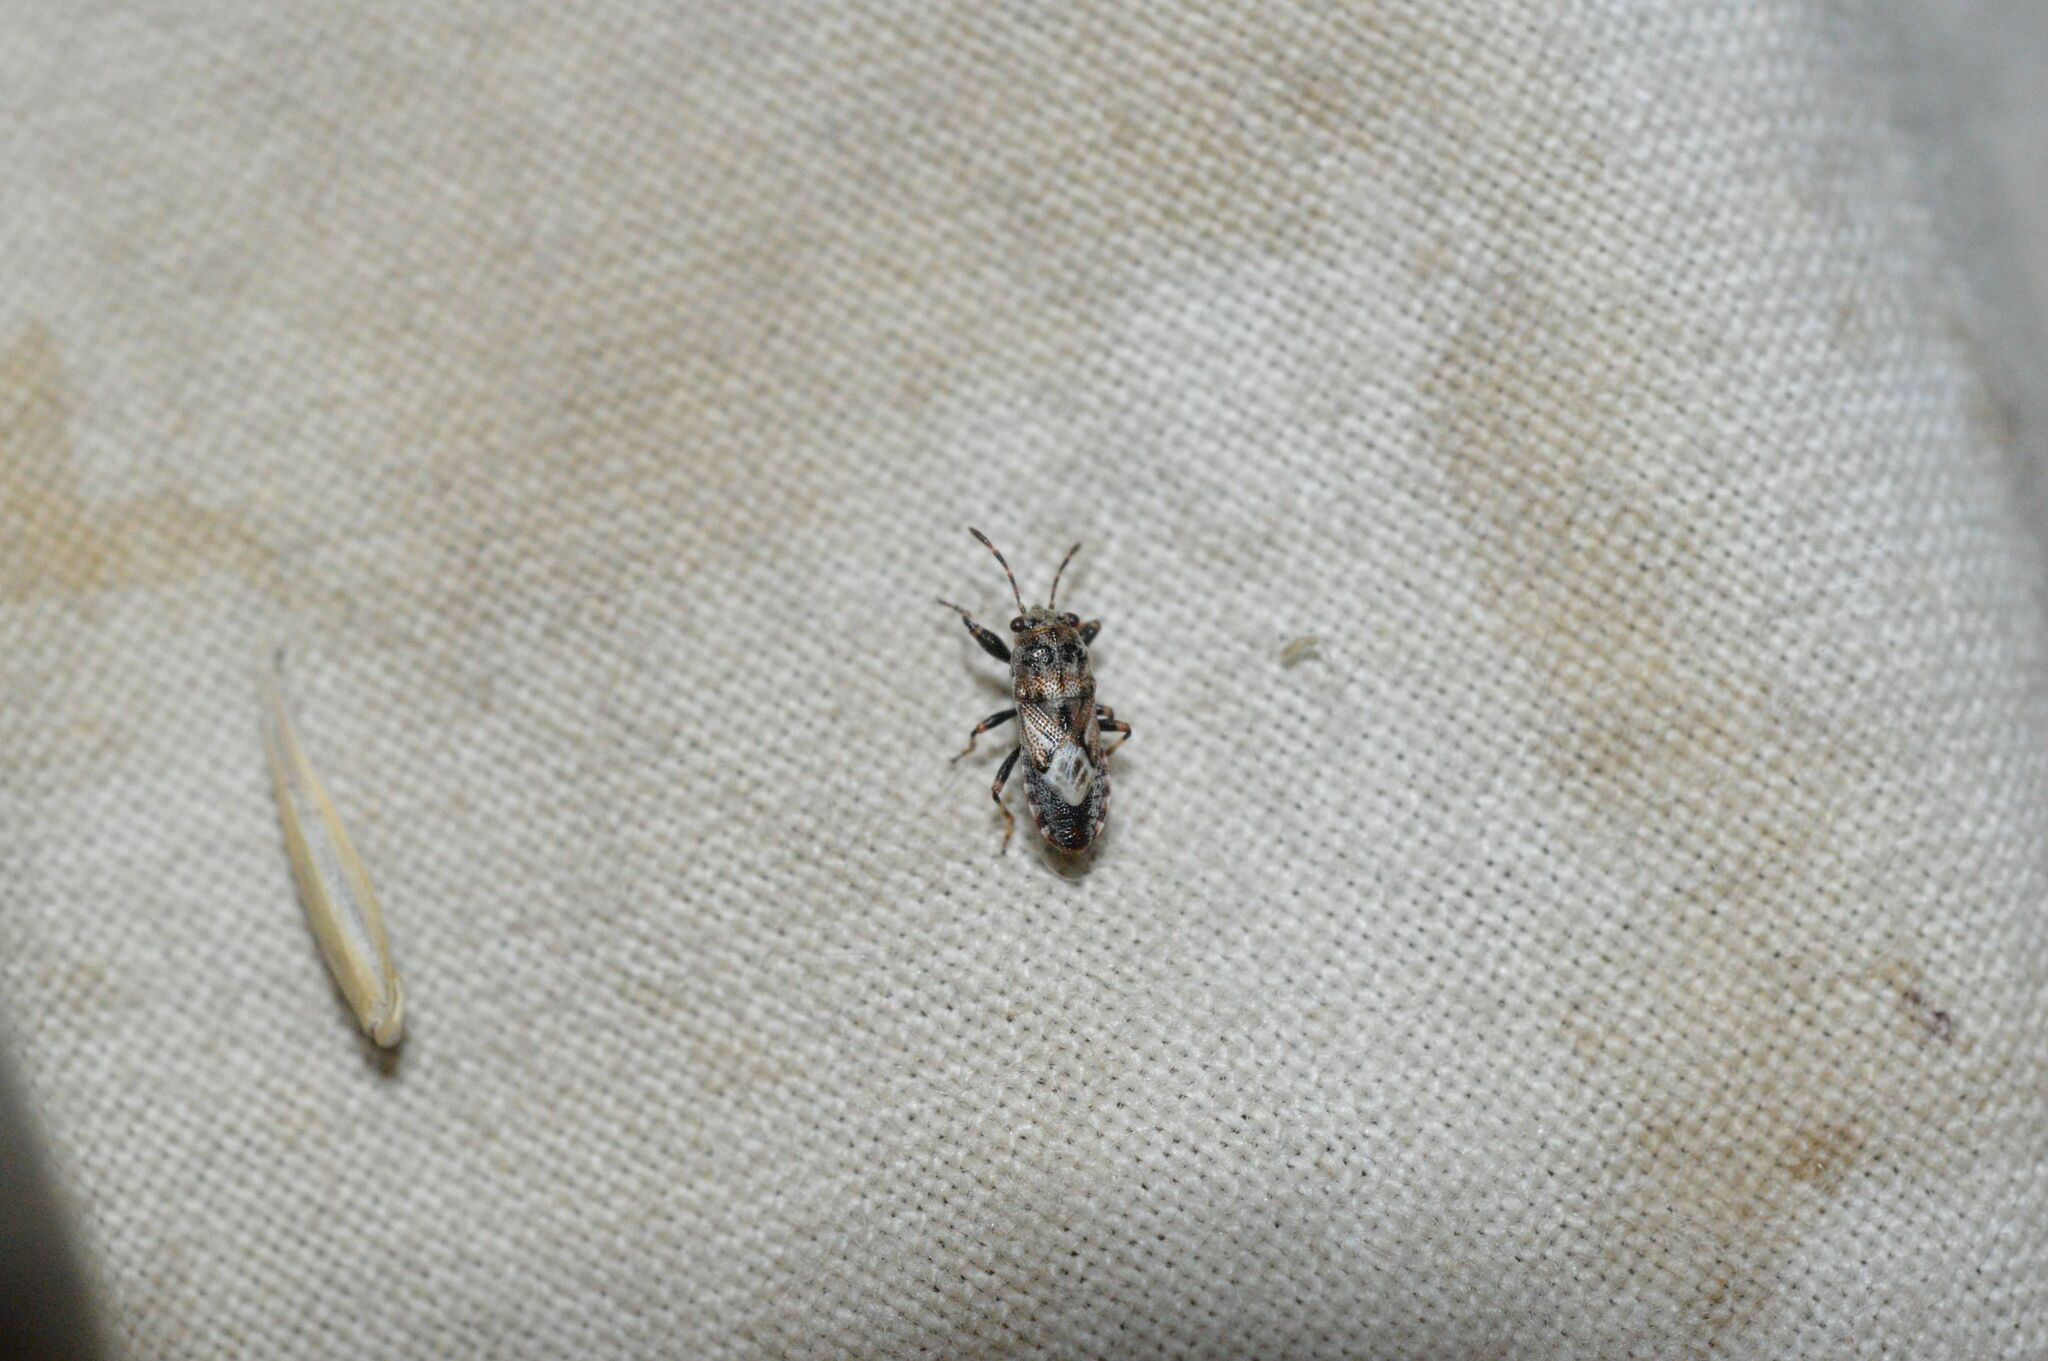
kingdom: Animalia
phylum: Arthropoda
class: Insecta
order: Hemiptera
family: Pachygronthidae
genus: Phlegyas
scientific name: Phlegyas abbreviatus
